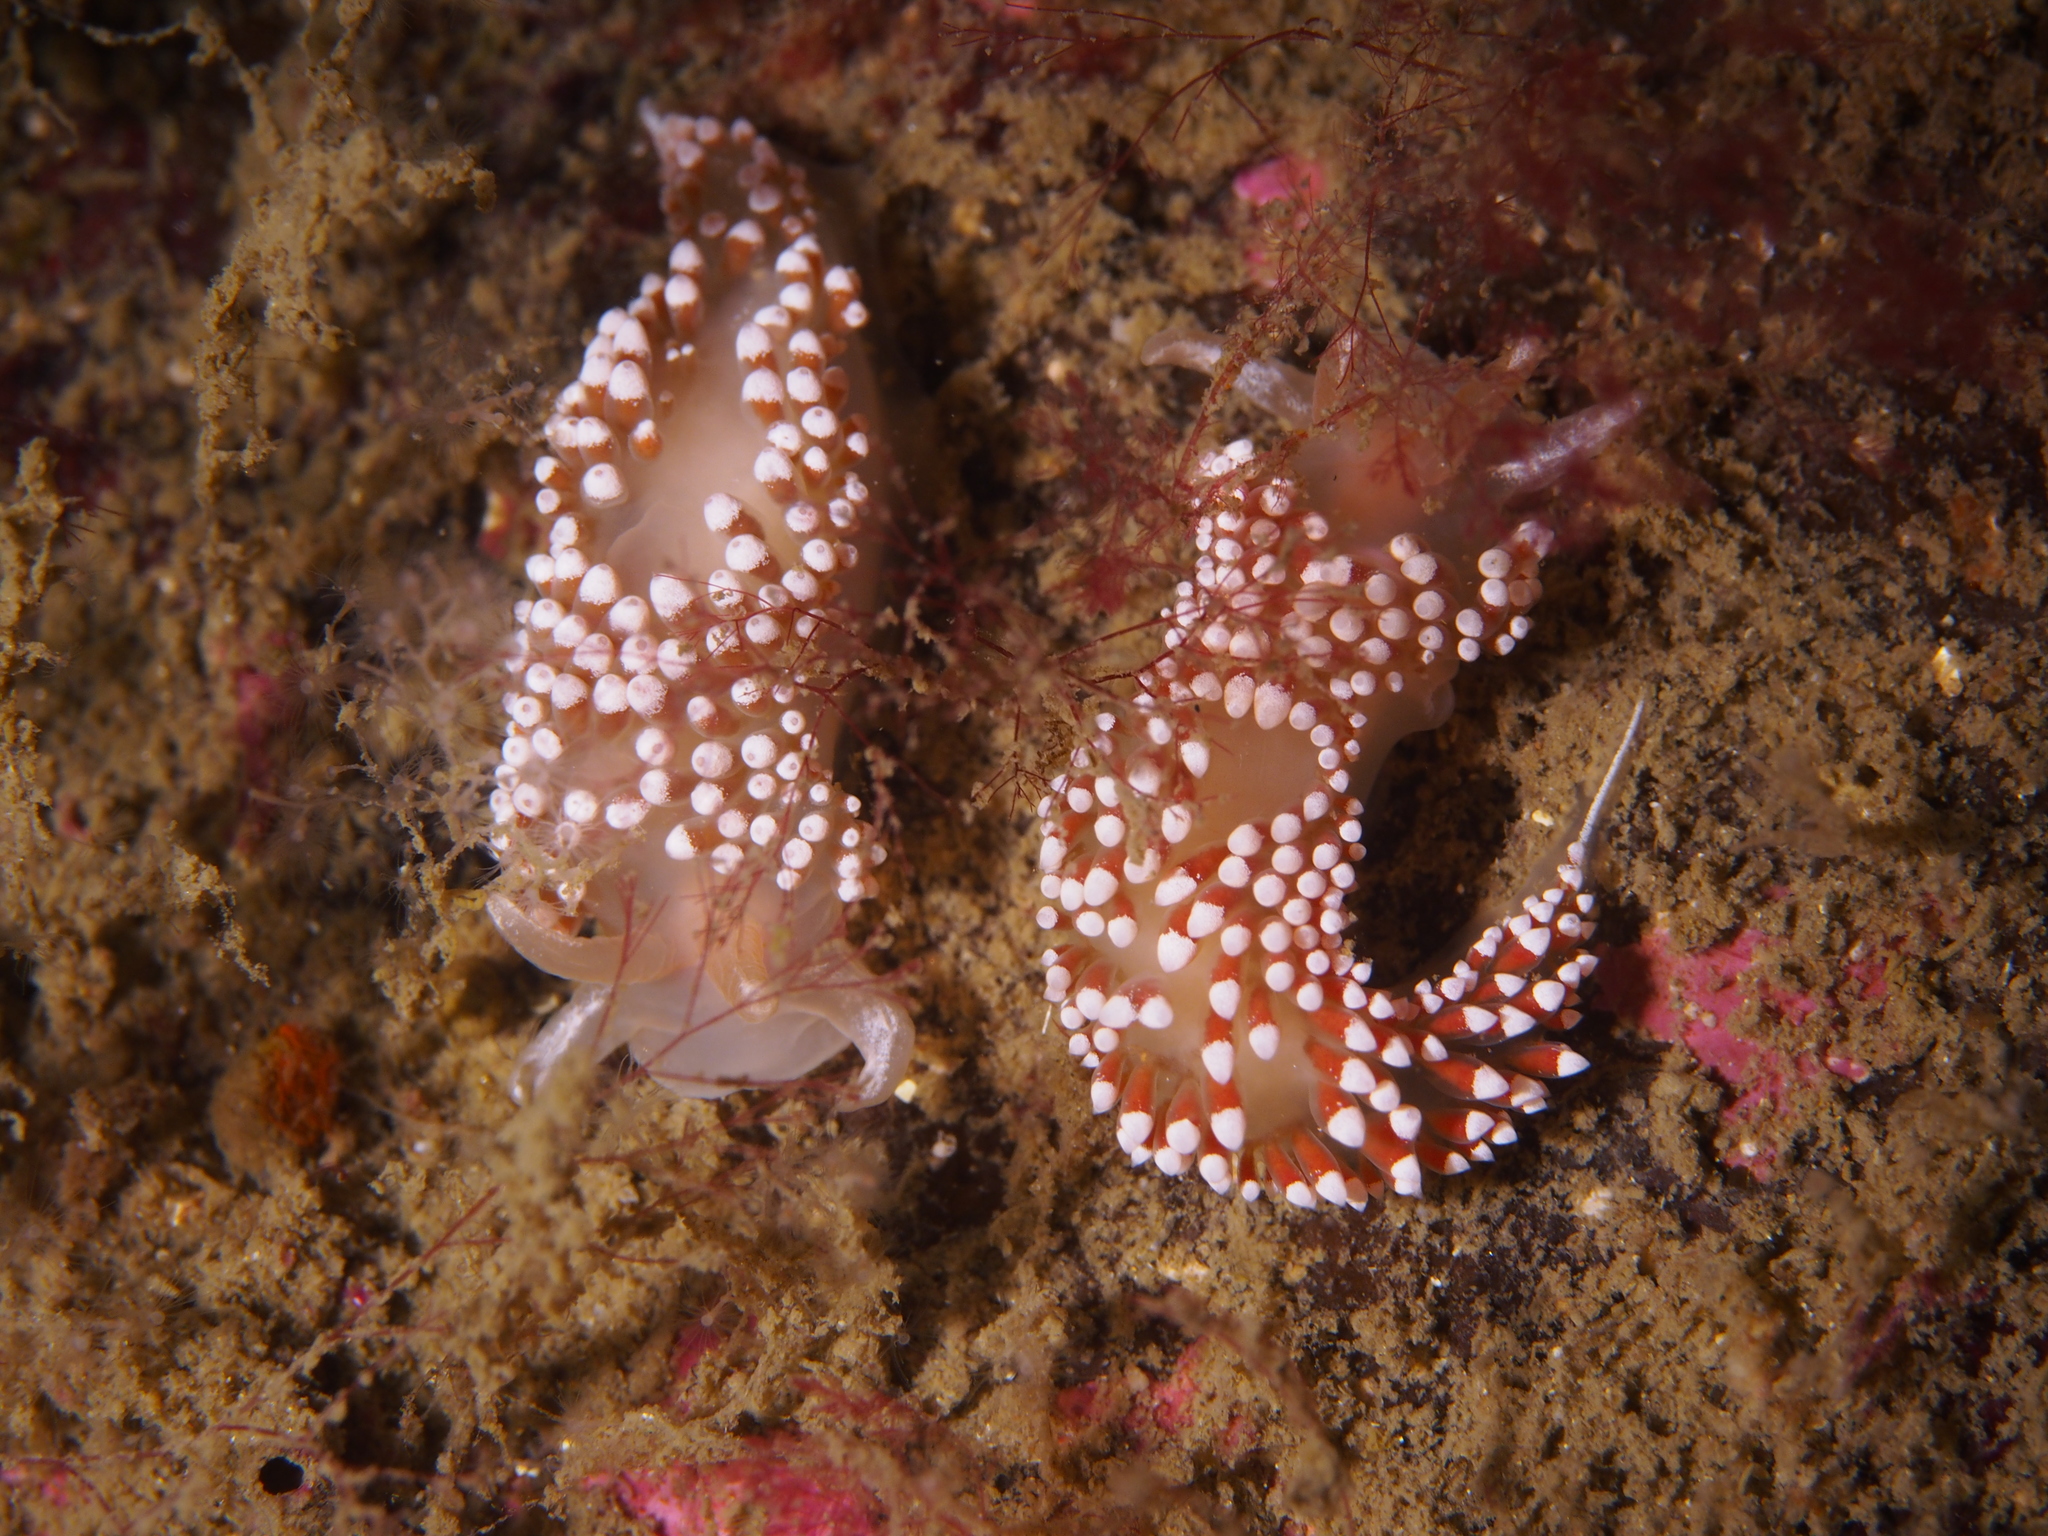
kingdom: Animalia
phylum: Mollusca
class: Gastropoda
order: Nudibranchia
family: Coryphellidae
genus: Coryphella
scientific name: Coryphella verrucosa
